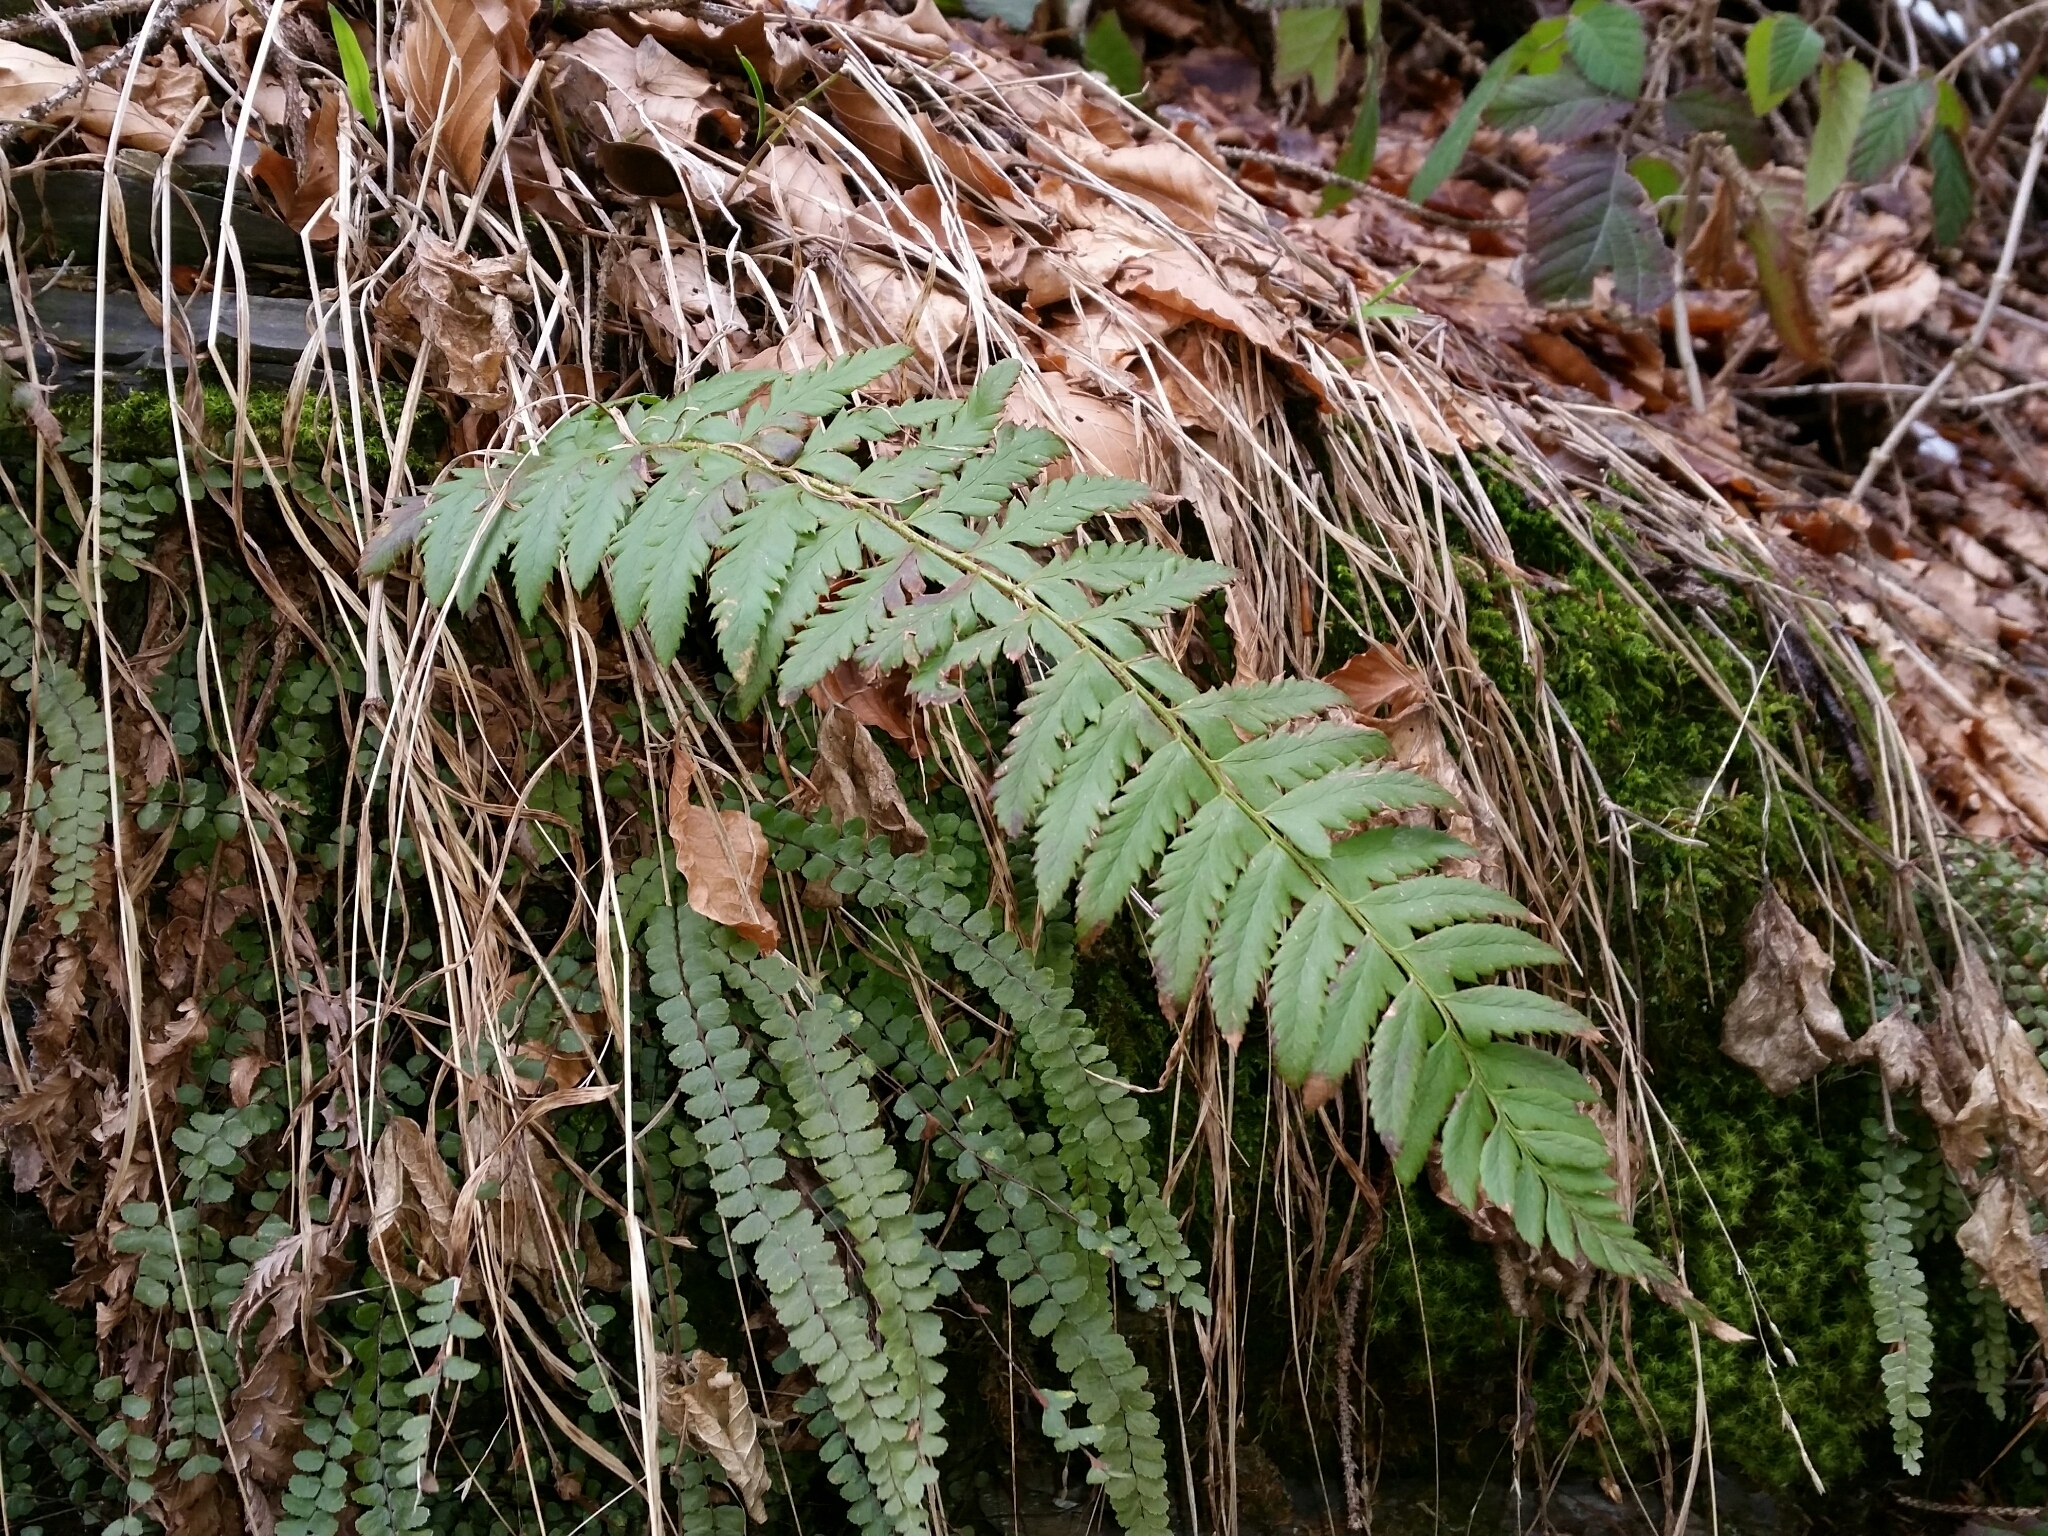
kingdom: Plantae
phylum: Tracheophyta
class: Polypodiopsida
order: Polypodiales
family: Dryopteridaceae
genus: Polystichum
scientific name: Polystichum aculeatum
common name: Hard shield-fern
